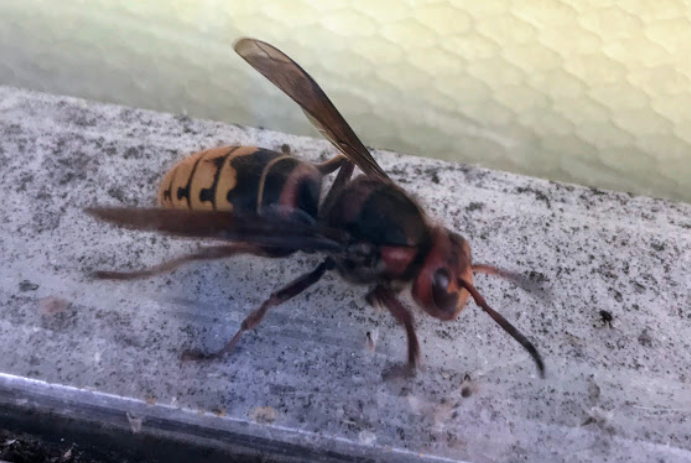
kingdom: Animalia
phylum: Arthropoda
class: Insecta
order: Hymenoptera
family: Vespidae
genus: Vespa
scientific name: Vespa crabro
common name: Hornet
